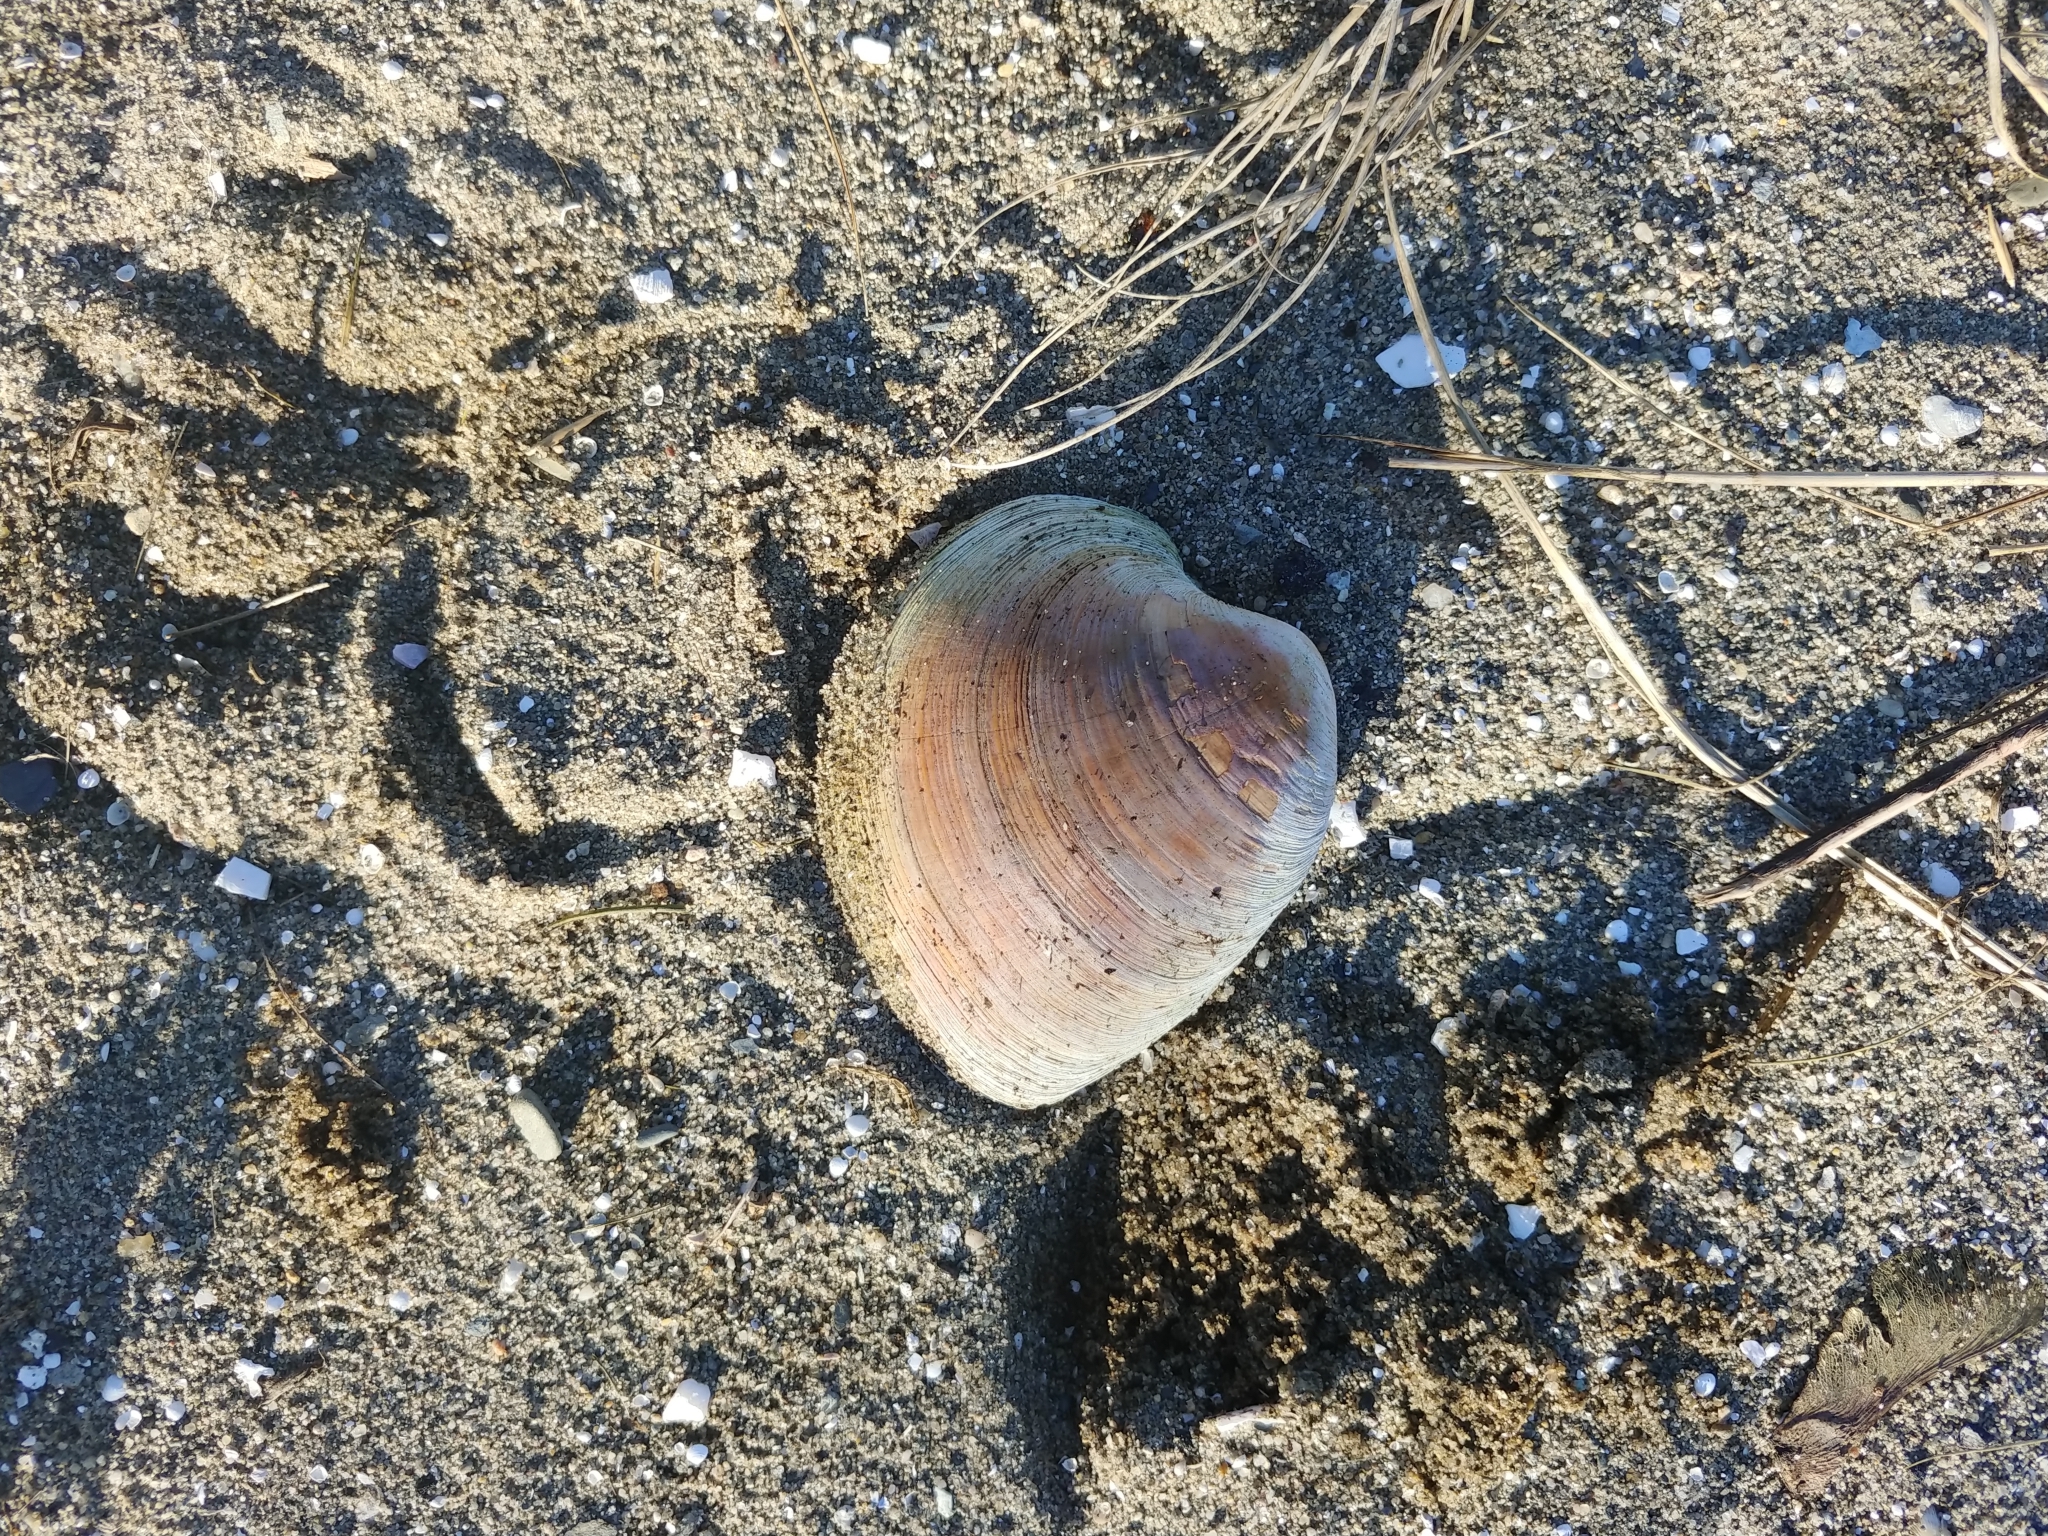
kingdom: Animalia
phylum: Mollusca
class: Bivalvia
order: Venerida
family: Veneridae
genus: Mercenaria
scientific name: Mercenaria mercenaria
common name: American hard-shelled clam
